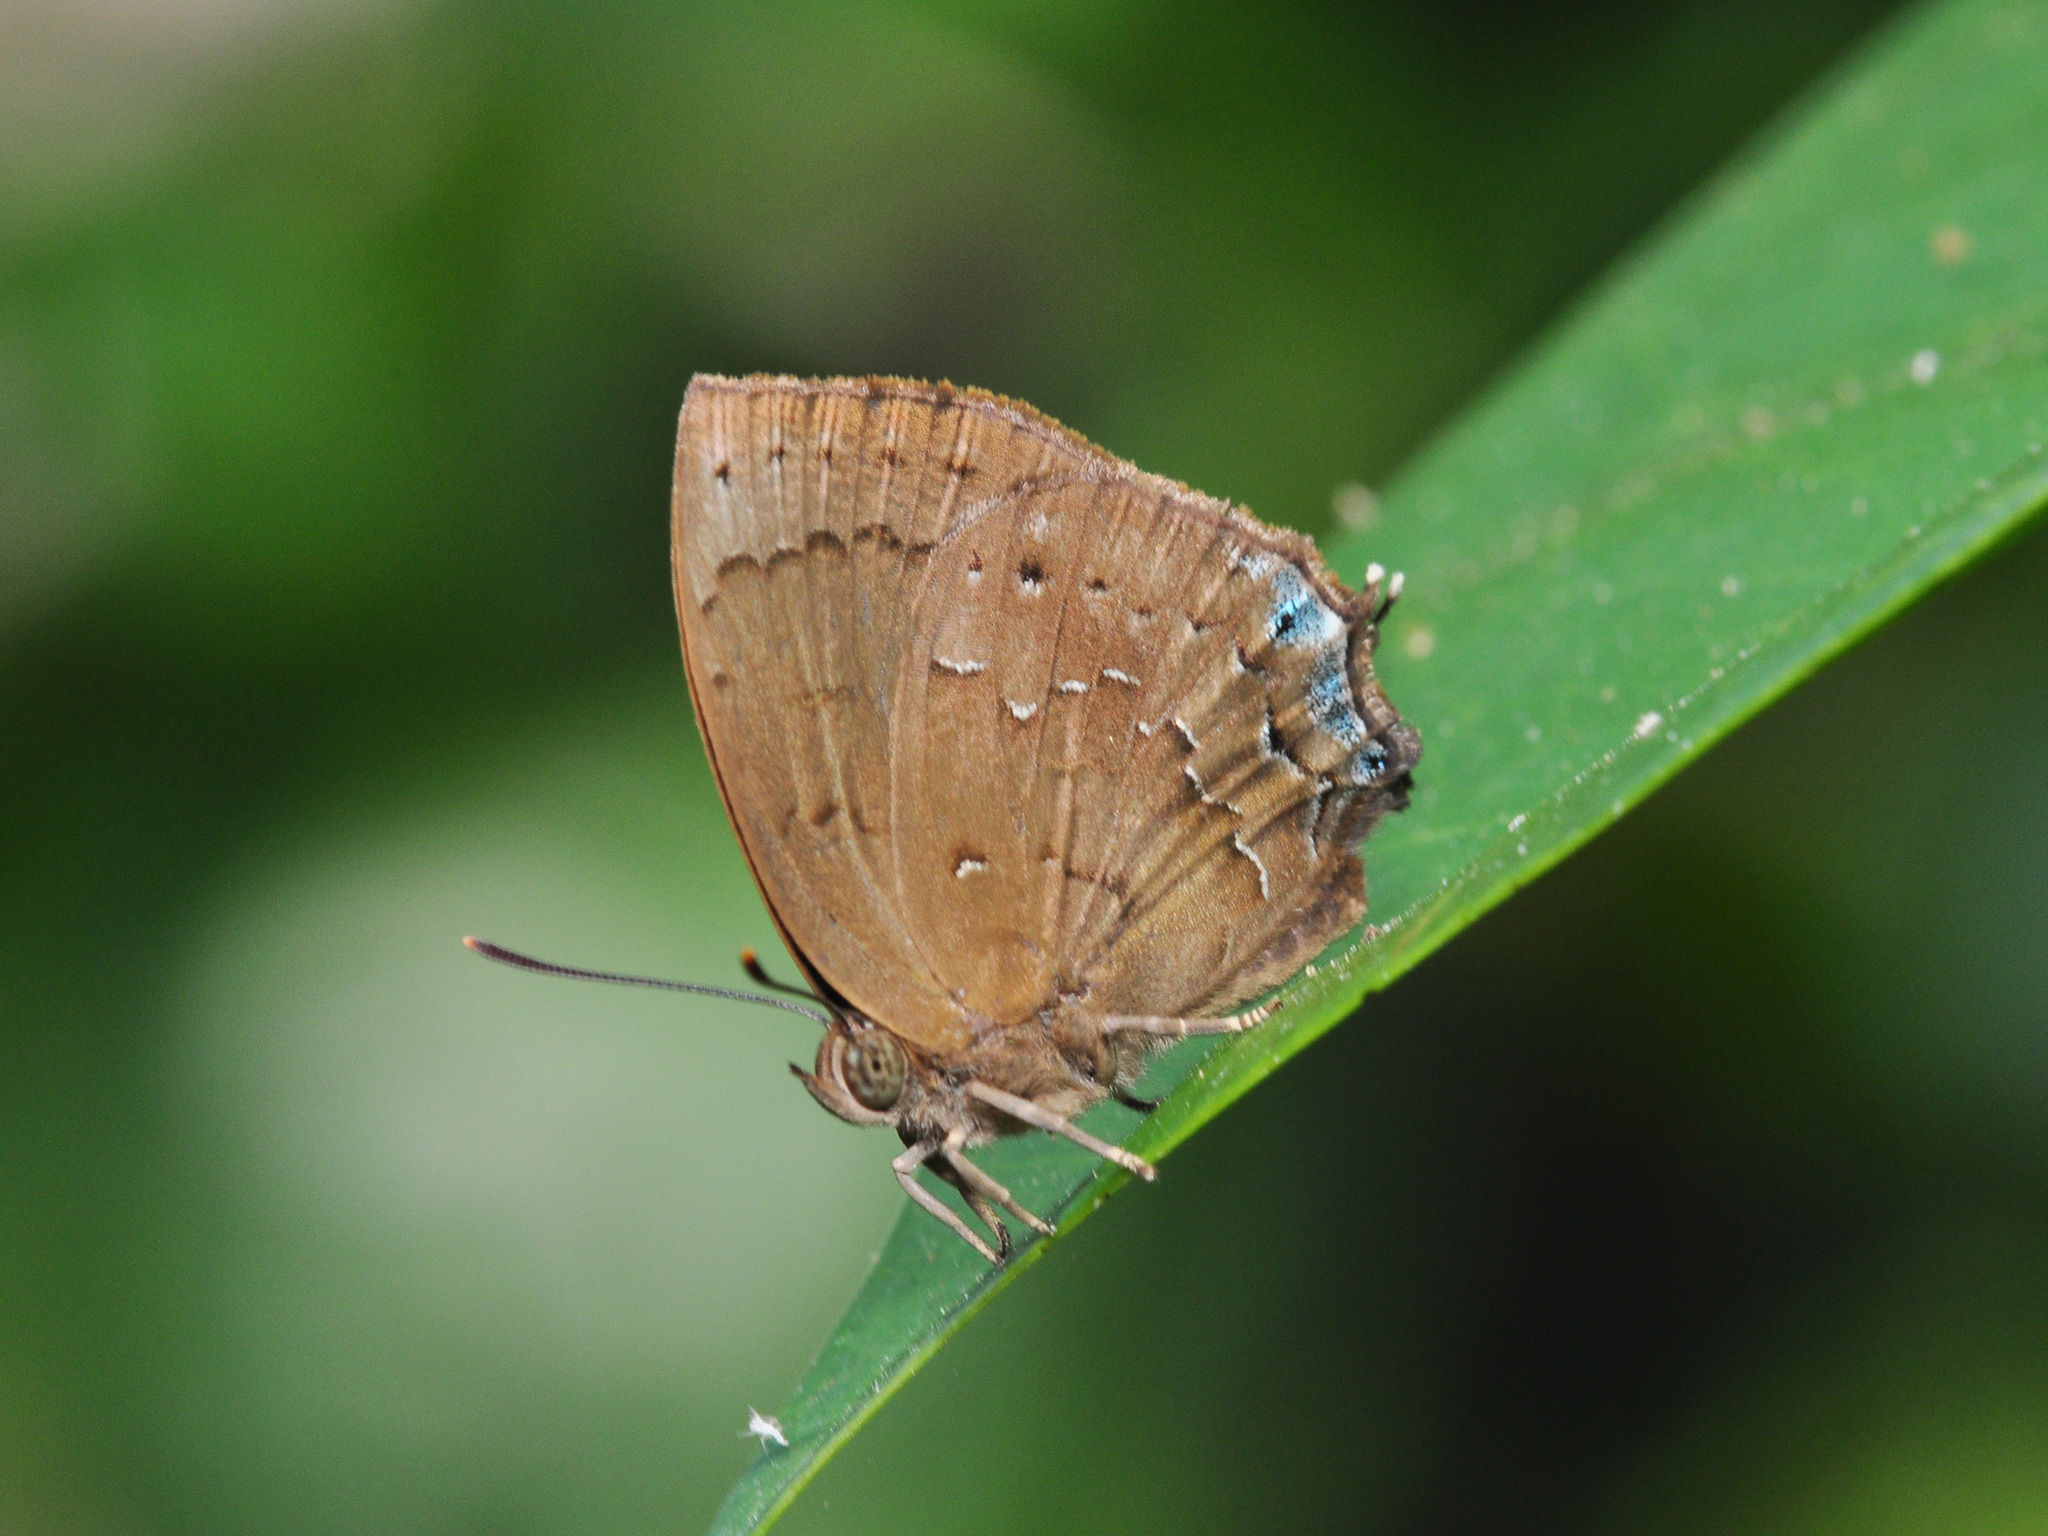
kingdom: Animalia
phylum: Arthropoda
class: Insecta
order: Lepidoptera
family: Lycaenidae
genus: Surendra
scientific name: Surendra vivarna
